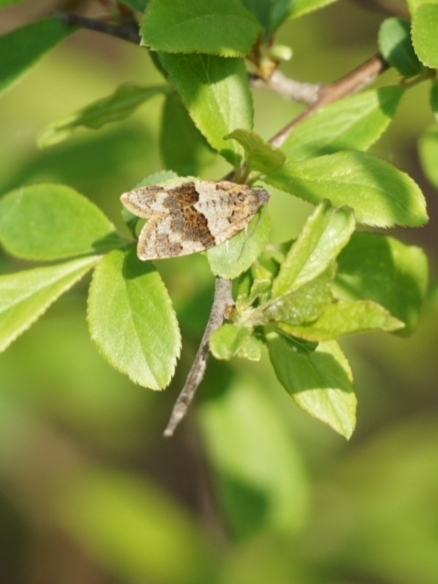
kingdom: Animalia
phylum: Arthropoda
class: Insecta
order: Lepidoptera
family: Tortricidae
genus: Syndemis
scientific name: Syndemis musculana
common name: Dark-barred twist
